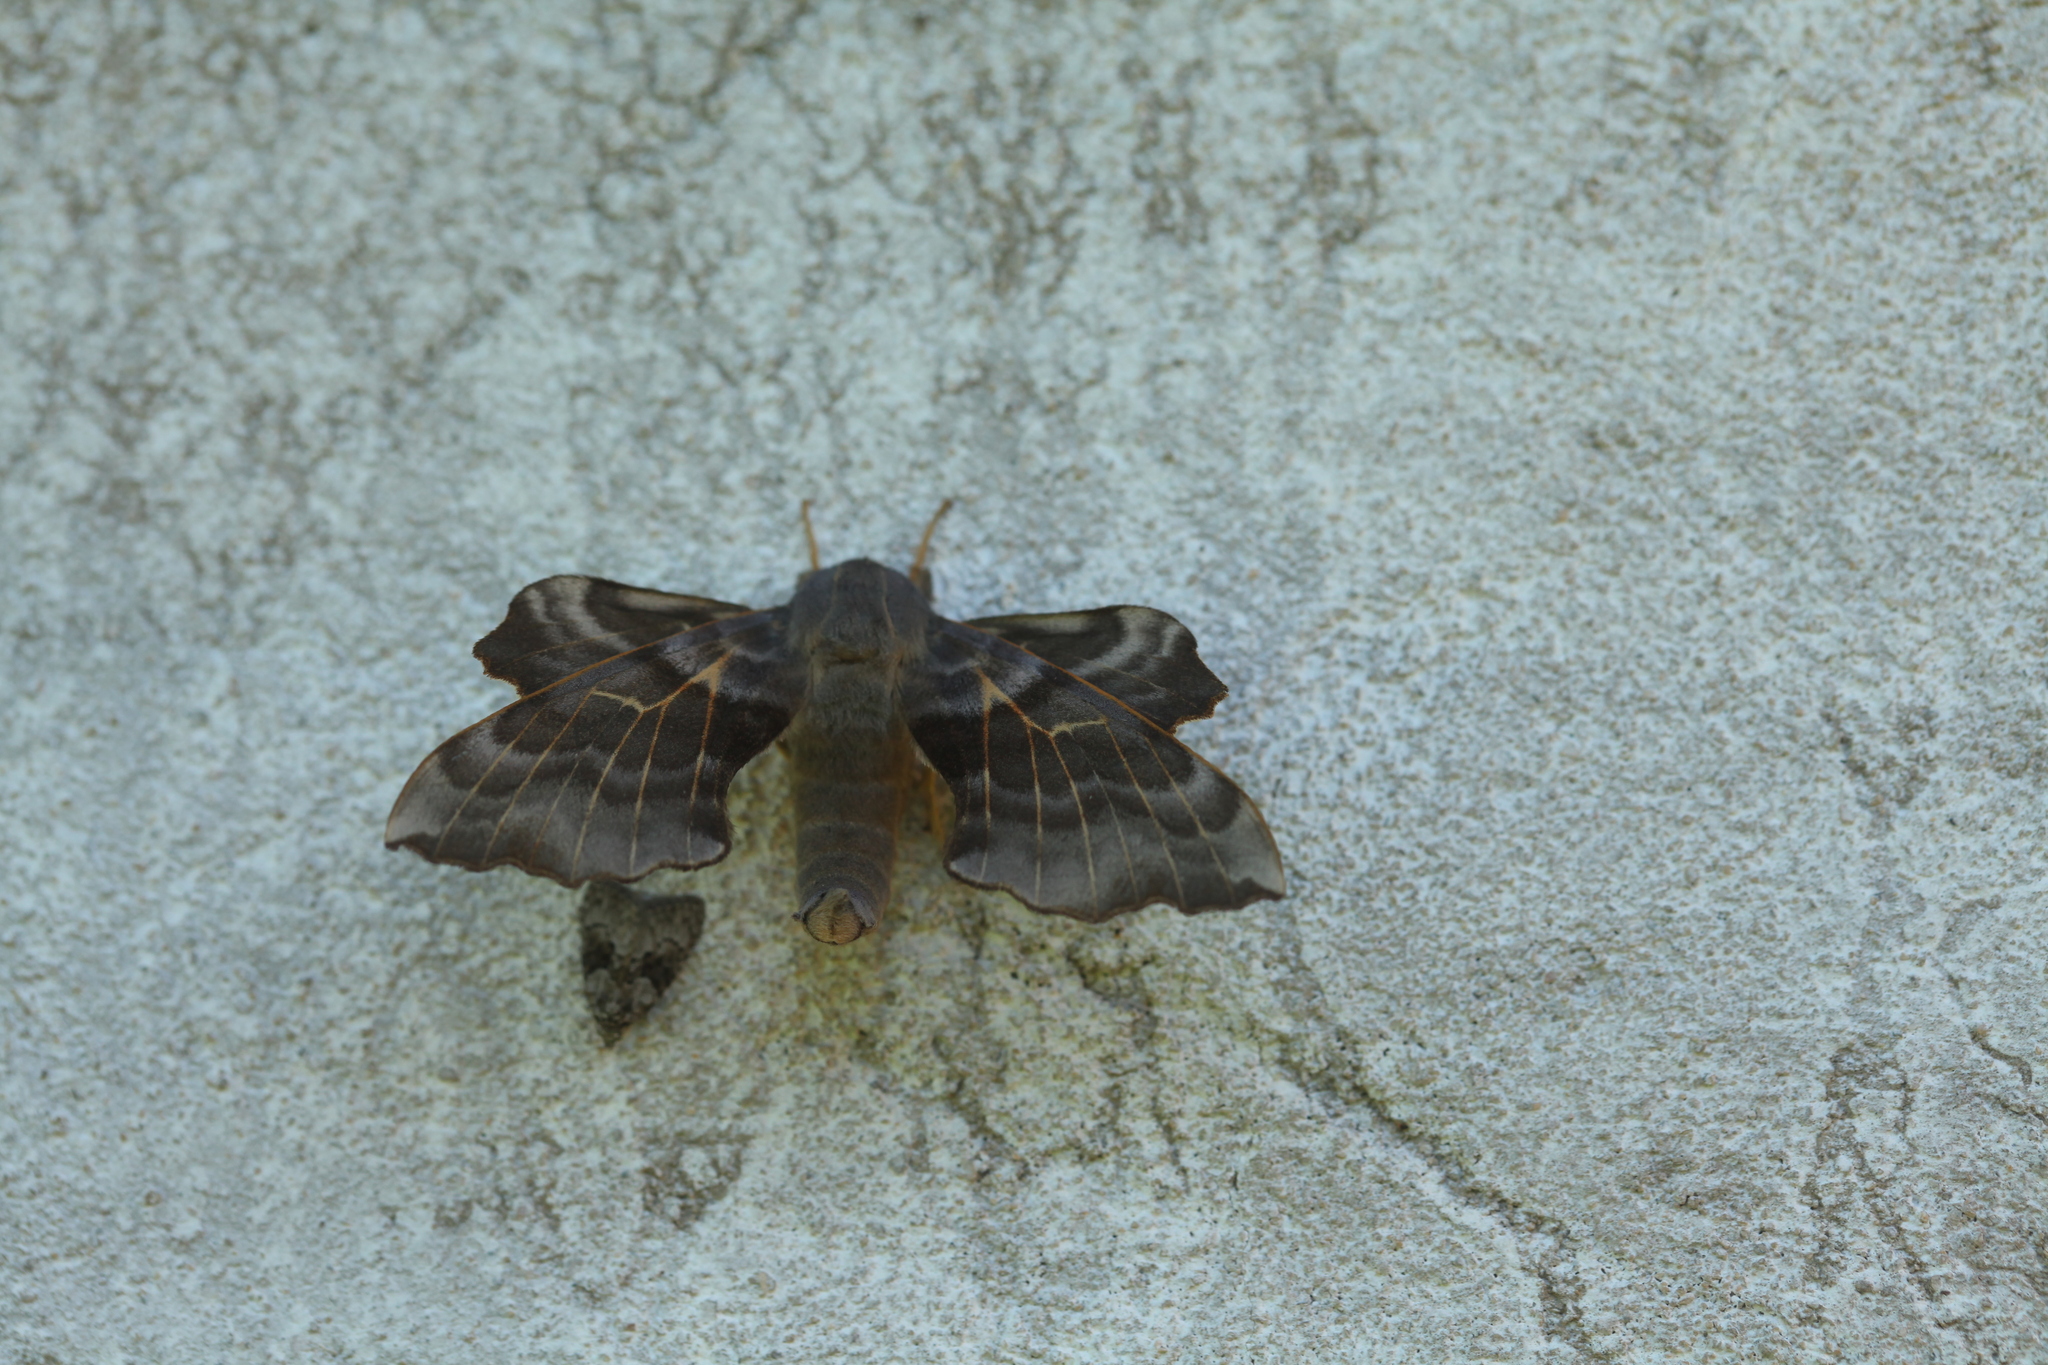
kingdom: Animalia
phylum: Arthropoda
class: Insecta
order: Lepidoptera
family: Sphingidae
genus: Laothoe
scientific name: Laothoe amurensis
